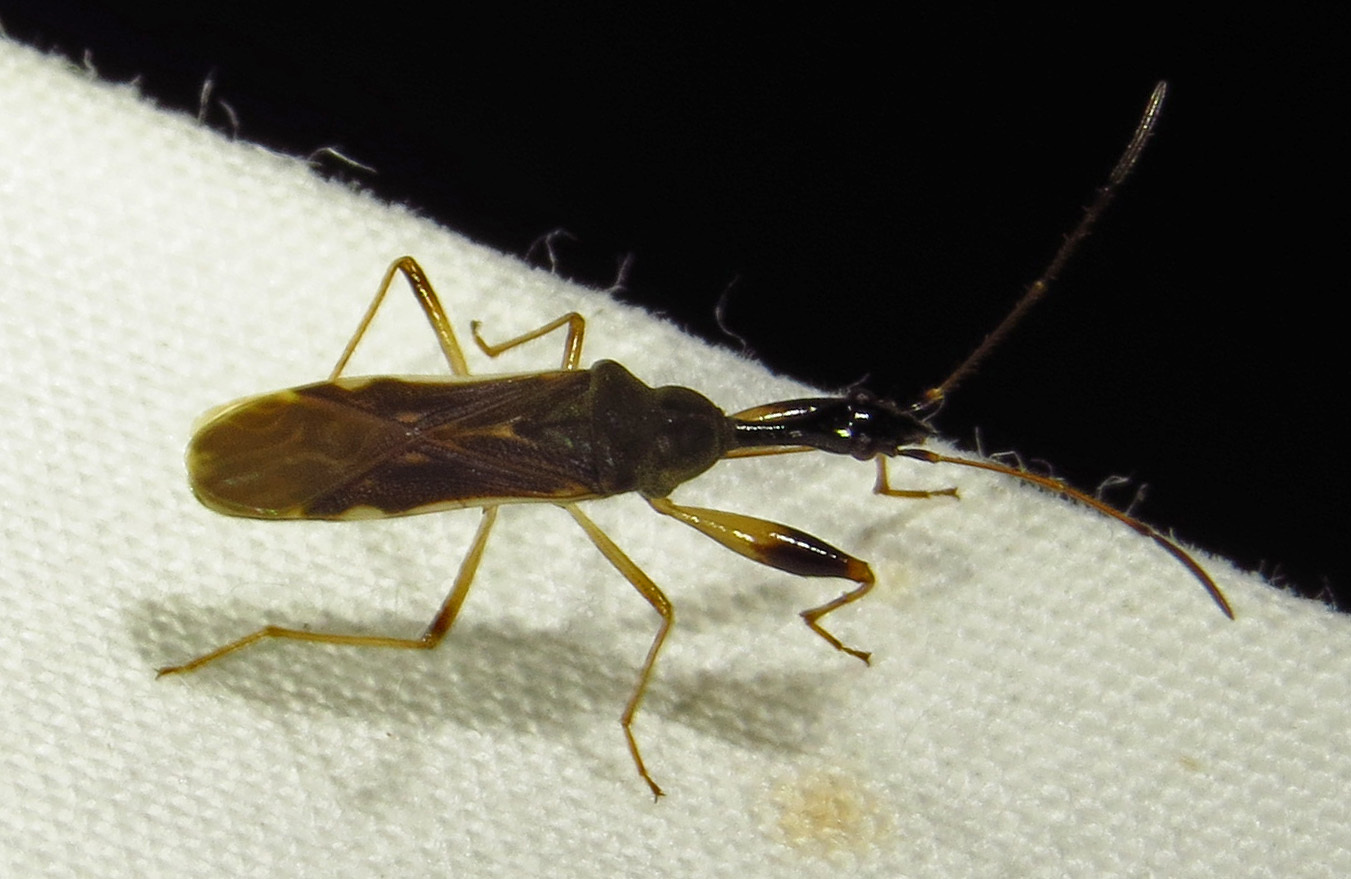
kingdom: Animalia
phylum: Arthropoda
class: Insecta
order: Hemiptera
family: Rhyparochromidae
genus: Myodocha
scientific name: Myodocha serripes
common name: Long-necked seed bug
